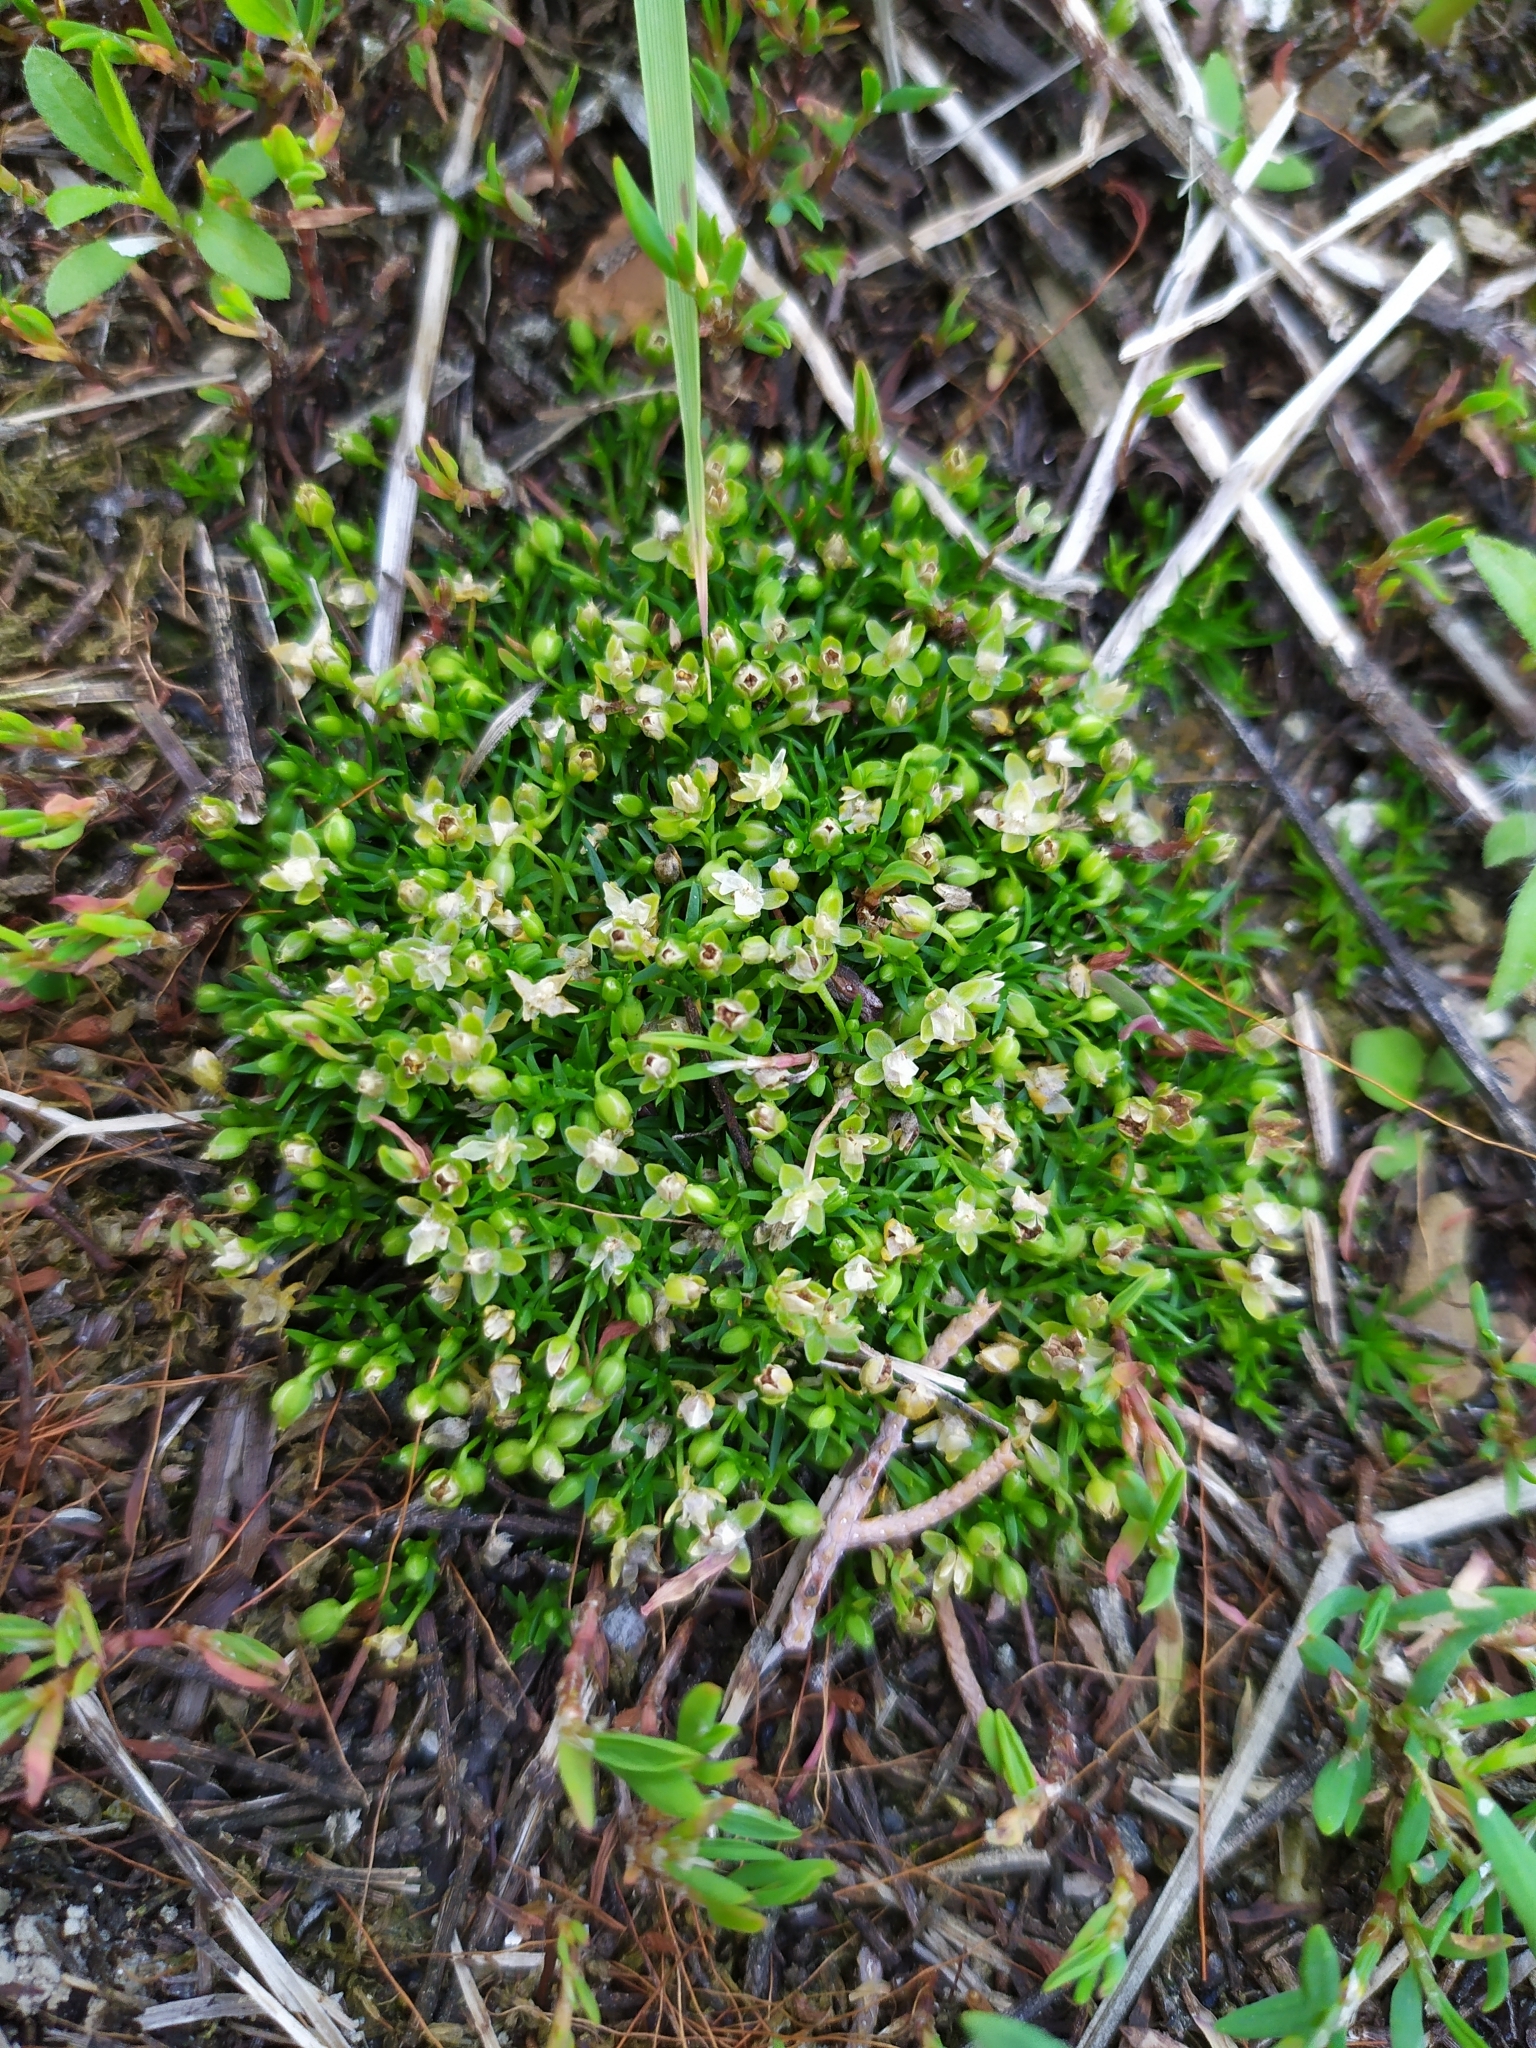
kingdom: Plantae
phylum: Tracheophyta
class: Magnoliopsida
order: Caryophyllales
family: Caryophyllaceae
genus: Sagina
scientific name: Sagina procumbens
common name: Procumbent pearlwort
